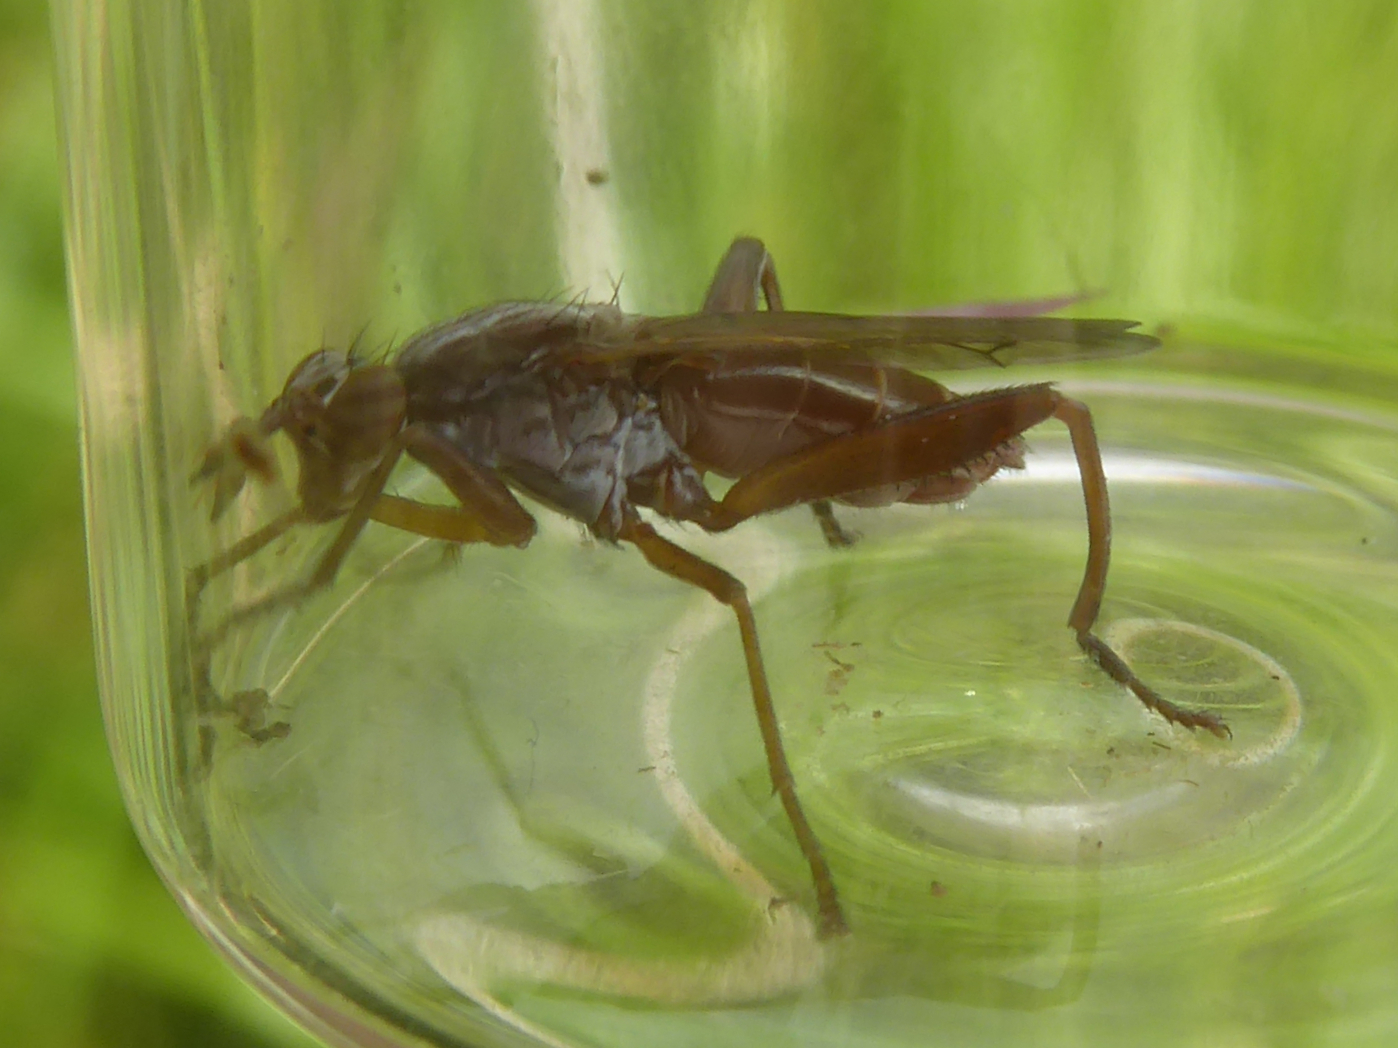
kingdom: Animalia
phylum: Arthropoda
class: Insecta
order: Diptera
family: Sciomyzidae
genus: Sepedon
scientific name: Sepedon spinipes
